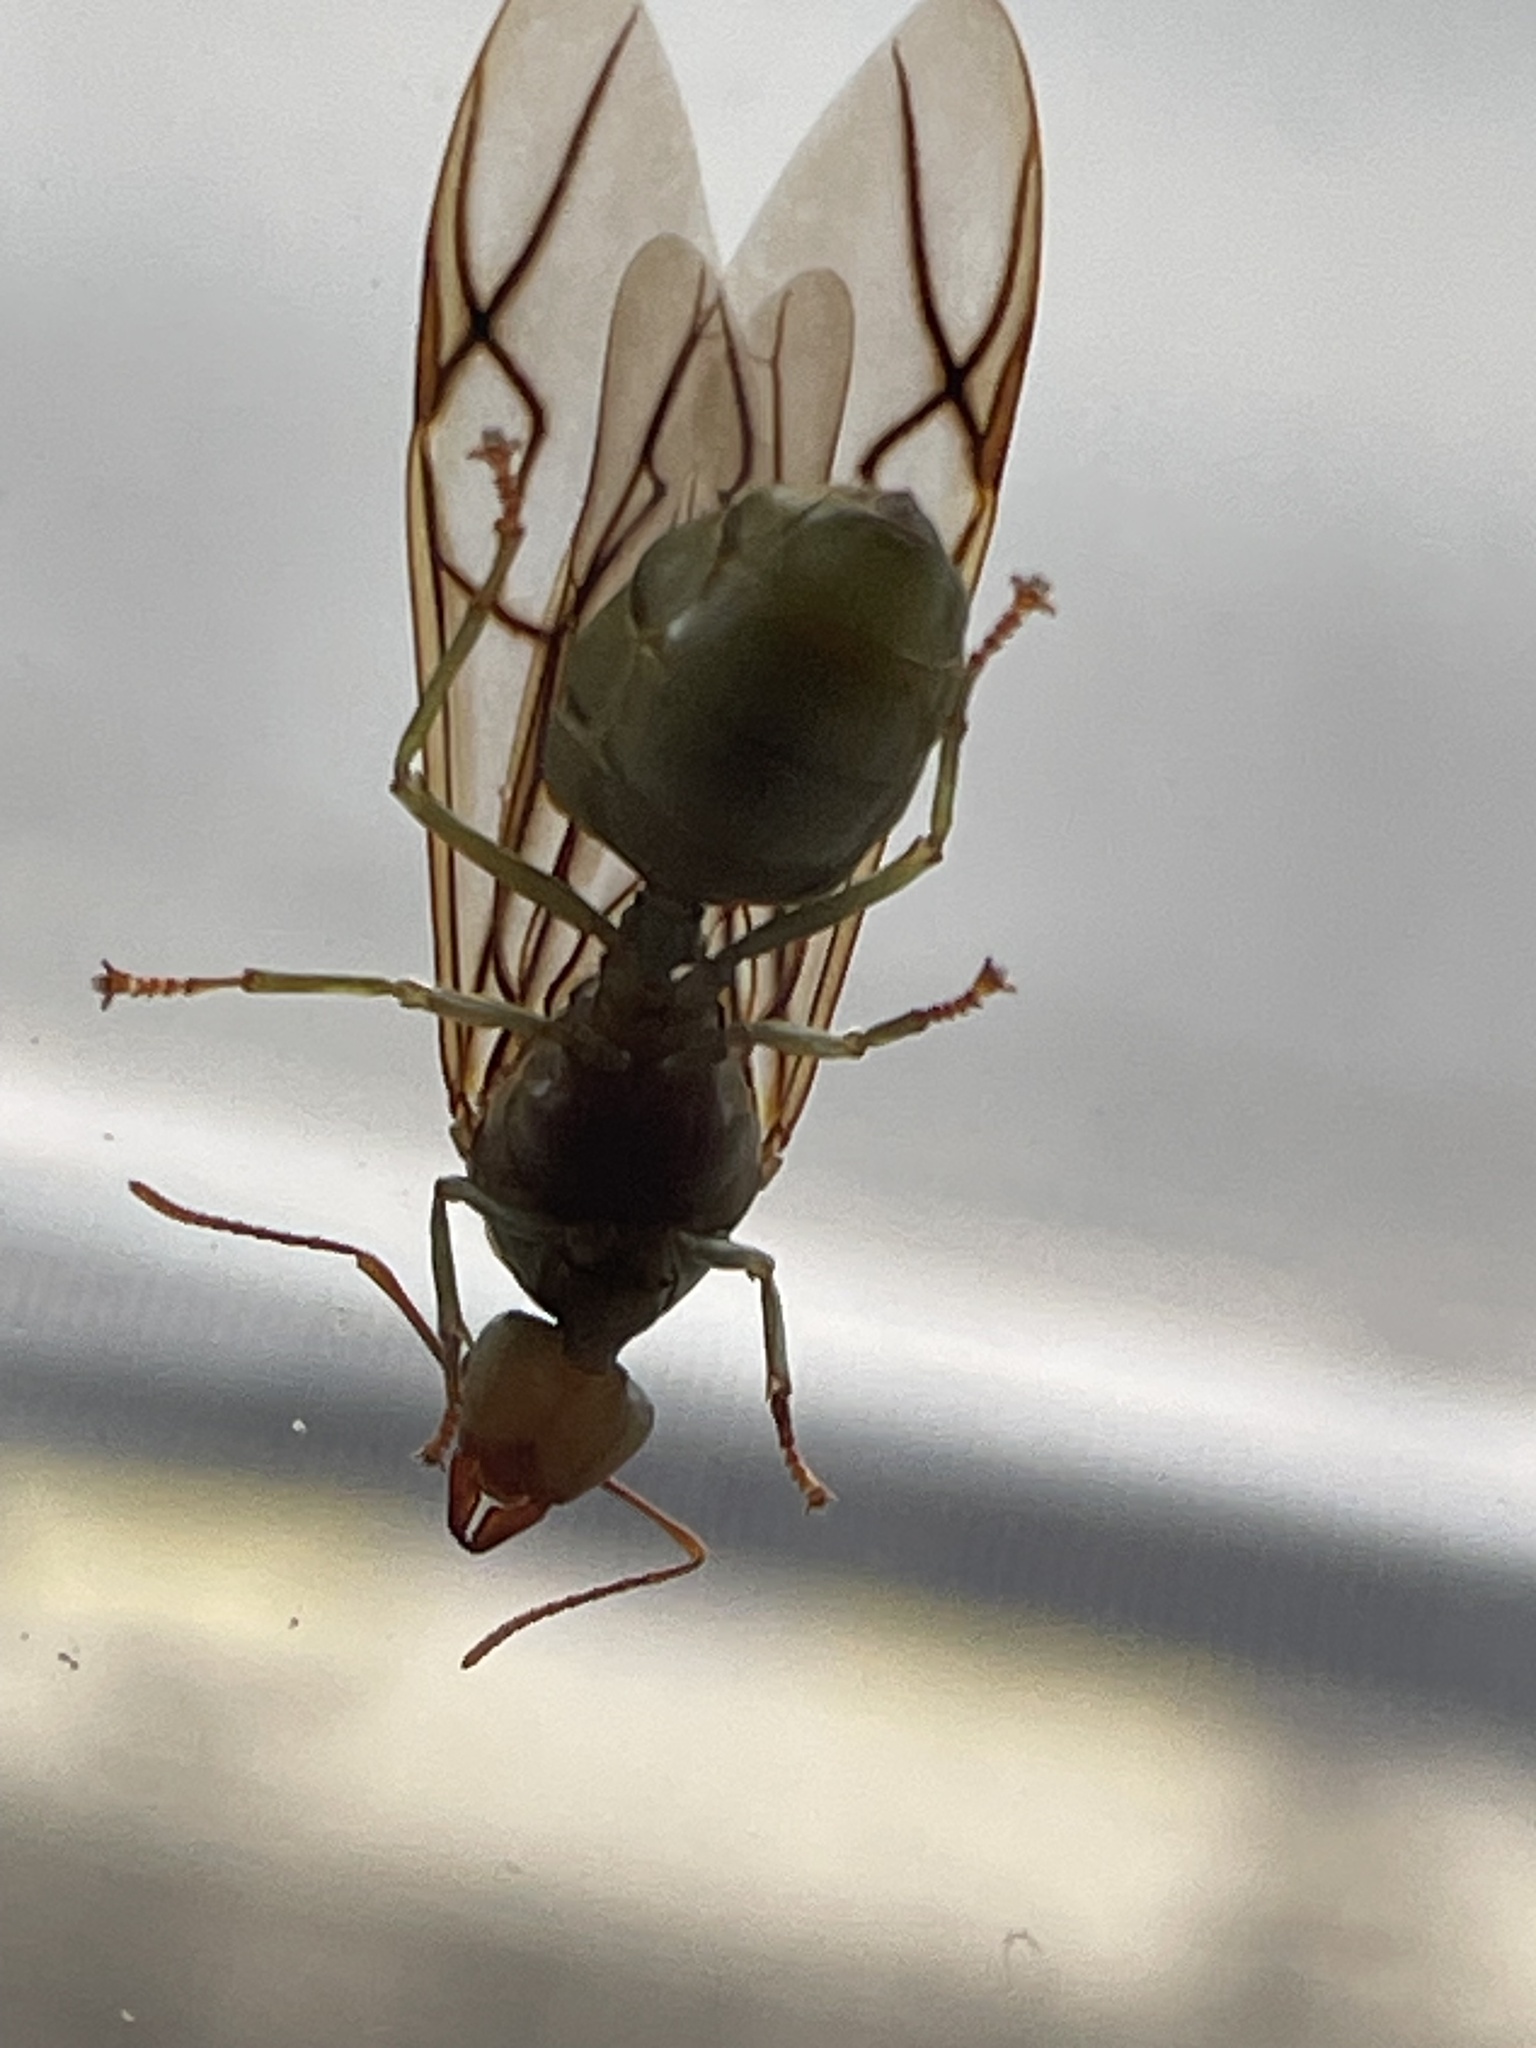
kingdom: Animalia
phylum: Arthropoda
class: Insecta
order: Hymenoptera
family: Formicidae
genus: Oecophylla
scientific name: Oecophylla smaragdina
